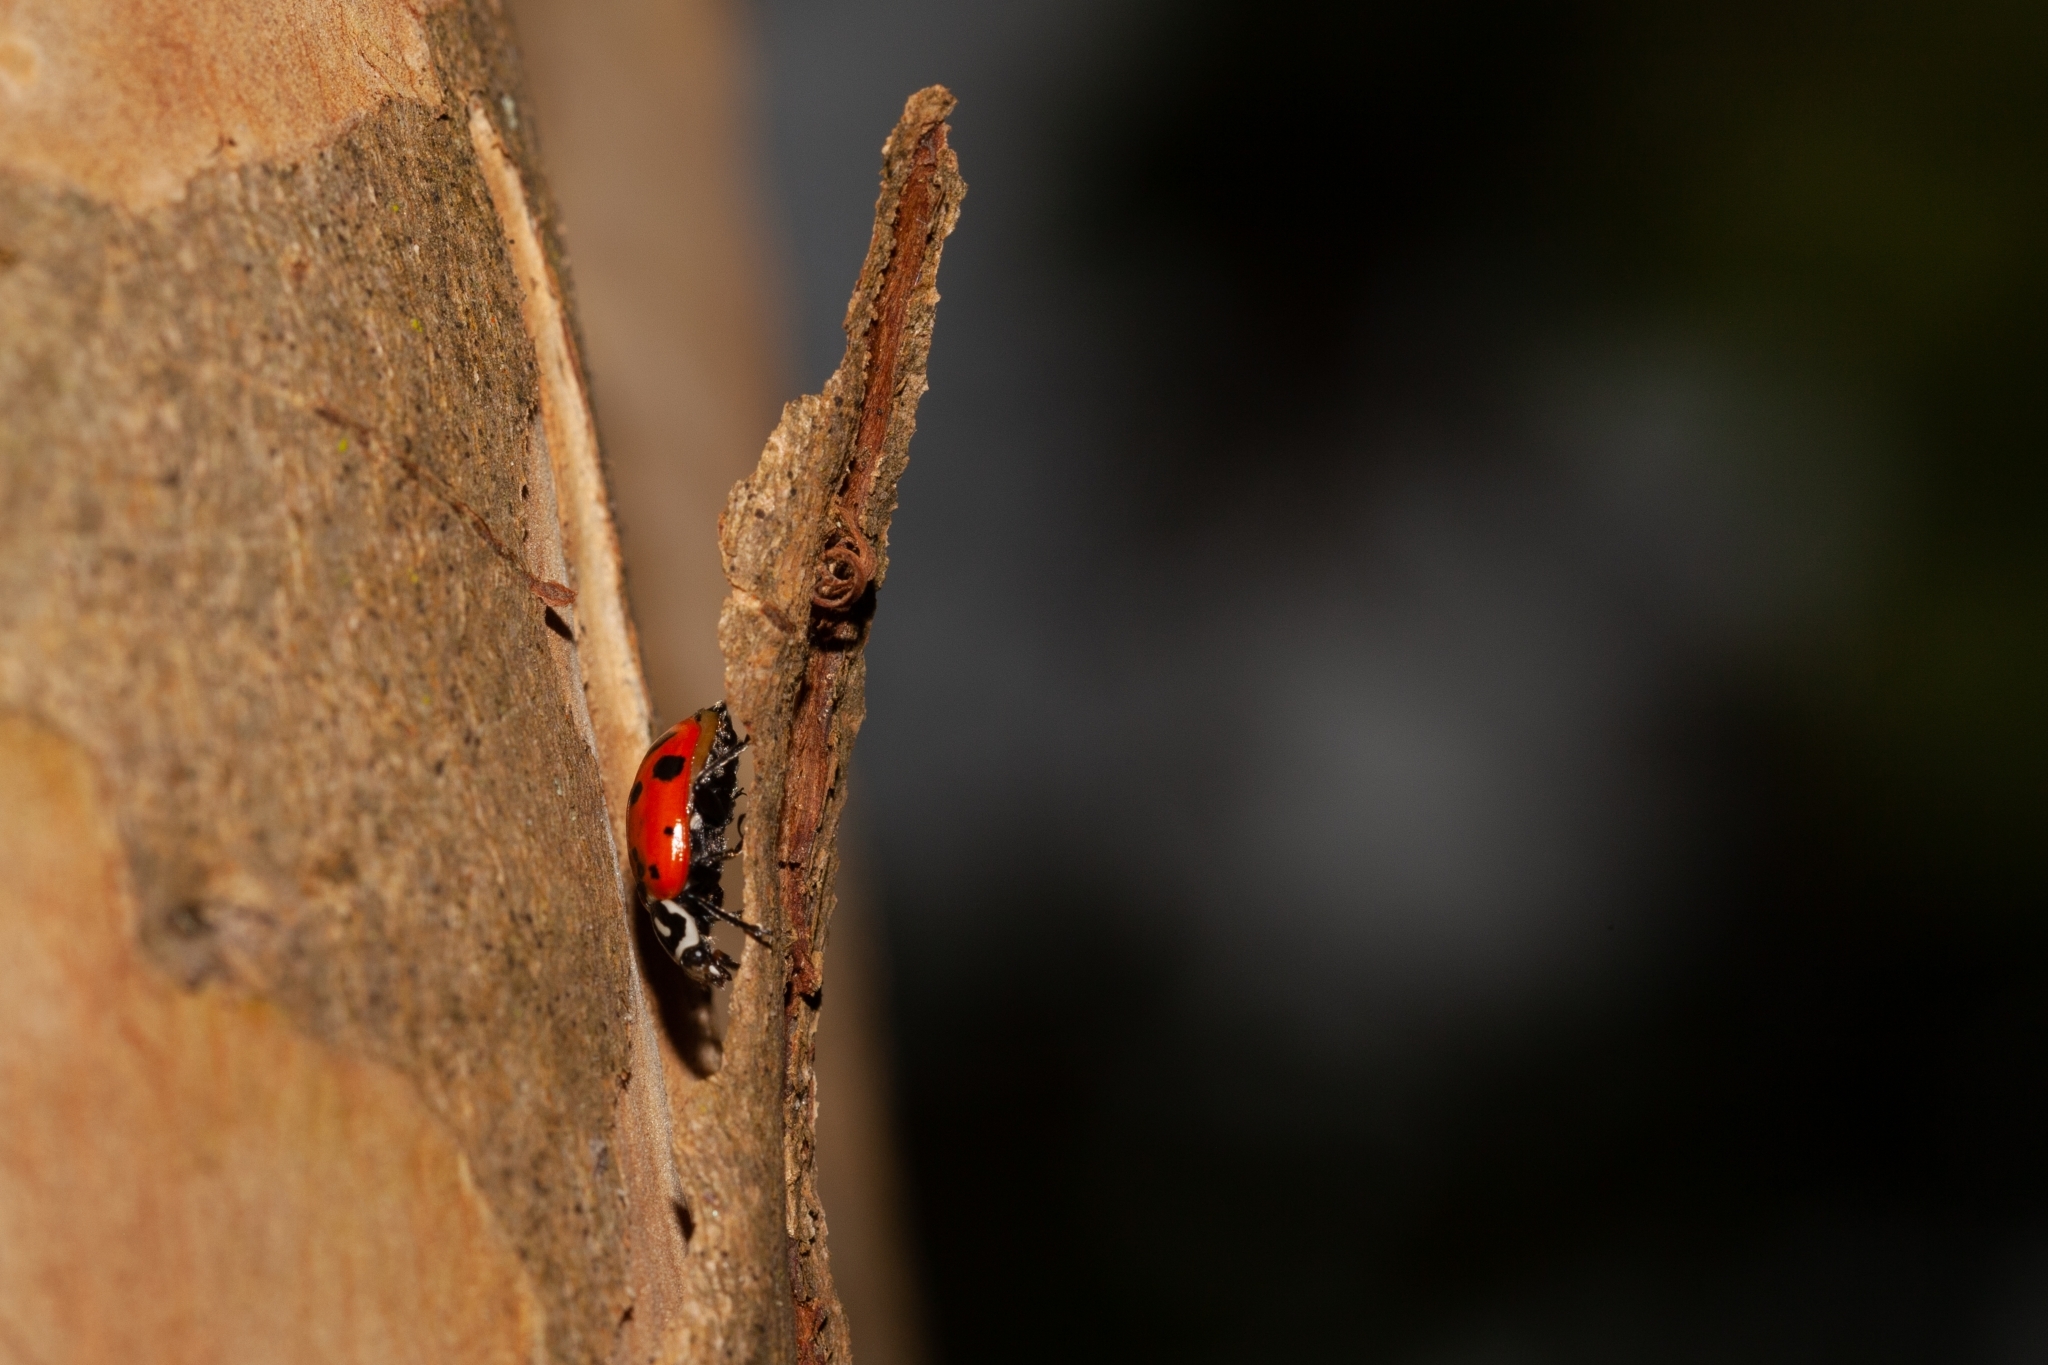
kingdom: Animalia
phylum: Arthropoda
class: Insecta
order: Coleoptera
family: Coccinellidae
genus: Hippodamia
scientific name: Hippodamia convergens
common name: Convergent lady beetle
